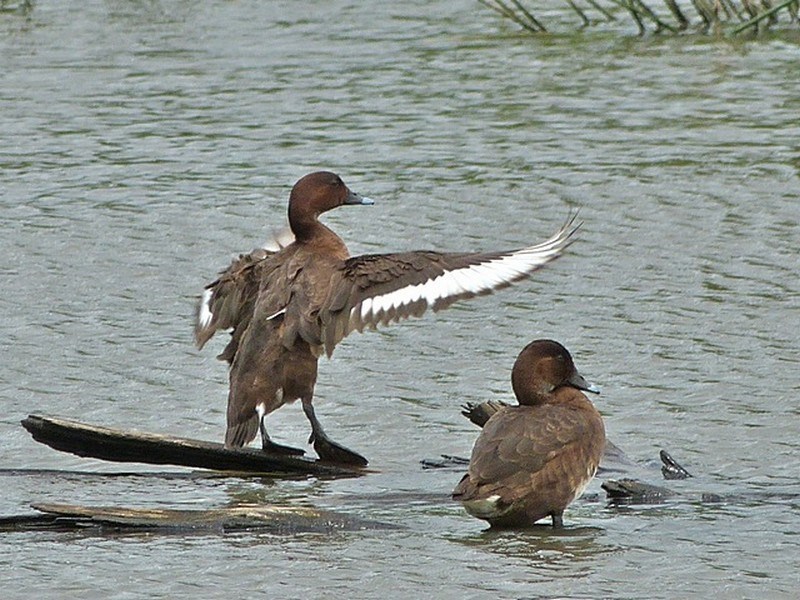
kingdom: Animalia
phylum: Chordata
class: Aves
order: Anseriformes
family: Anatidae
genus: Aythya
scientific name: Aythya australis
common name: Hardhead
